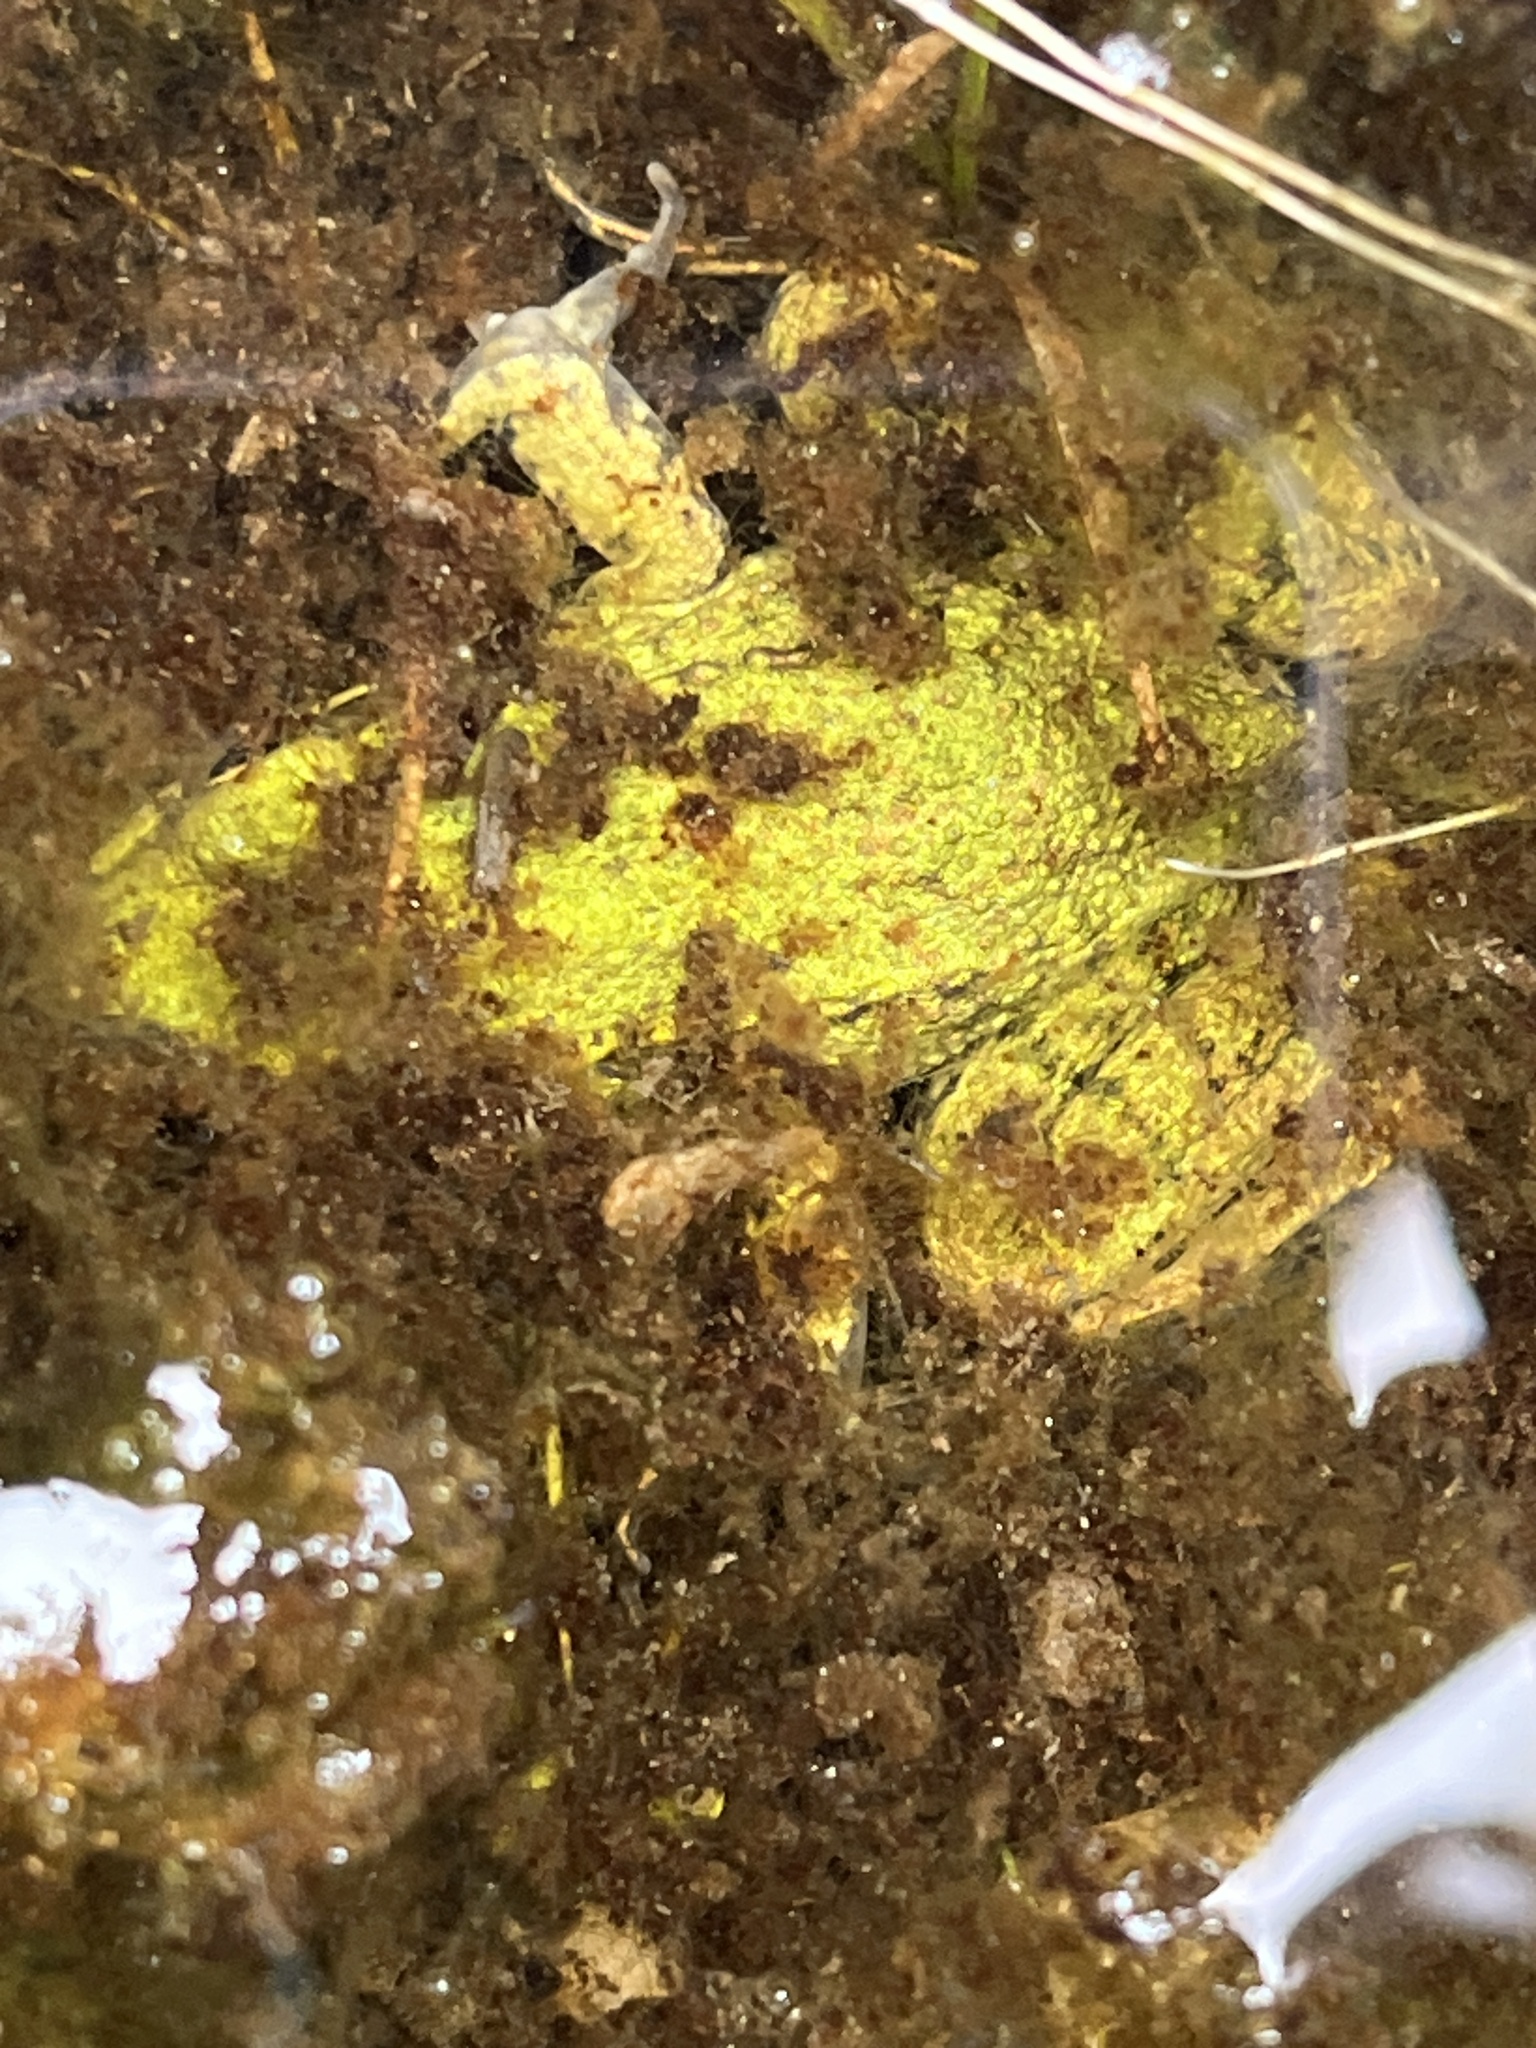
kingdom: Animalia
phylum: Chordata
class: Amphibia
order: Anura
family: Ranidae
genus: Lithobates
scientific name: Lithobates clamitans
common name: Green frog
